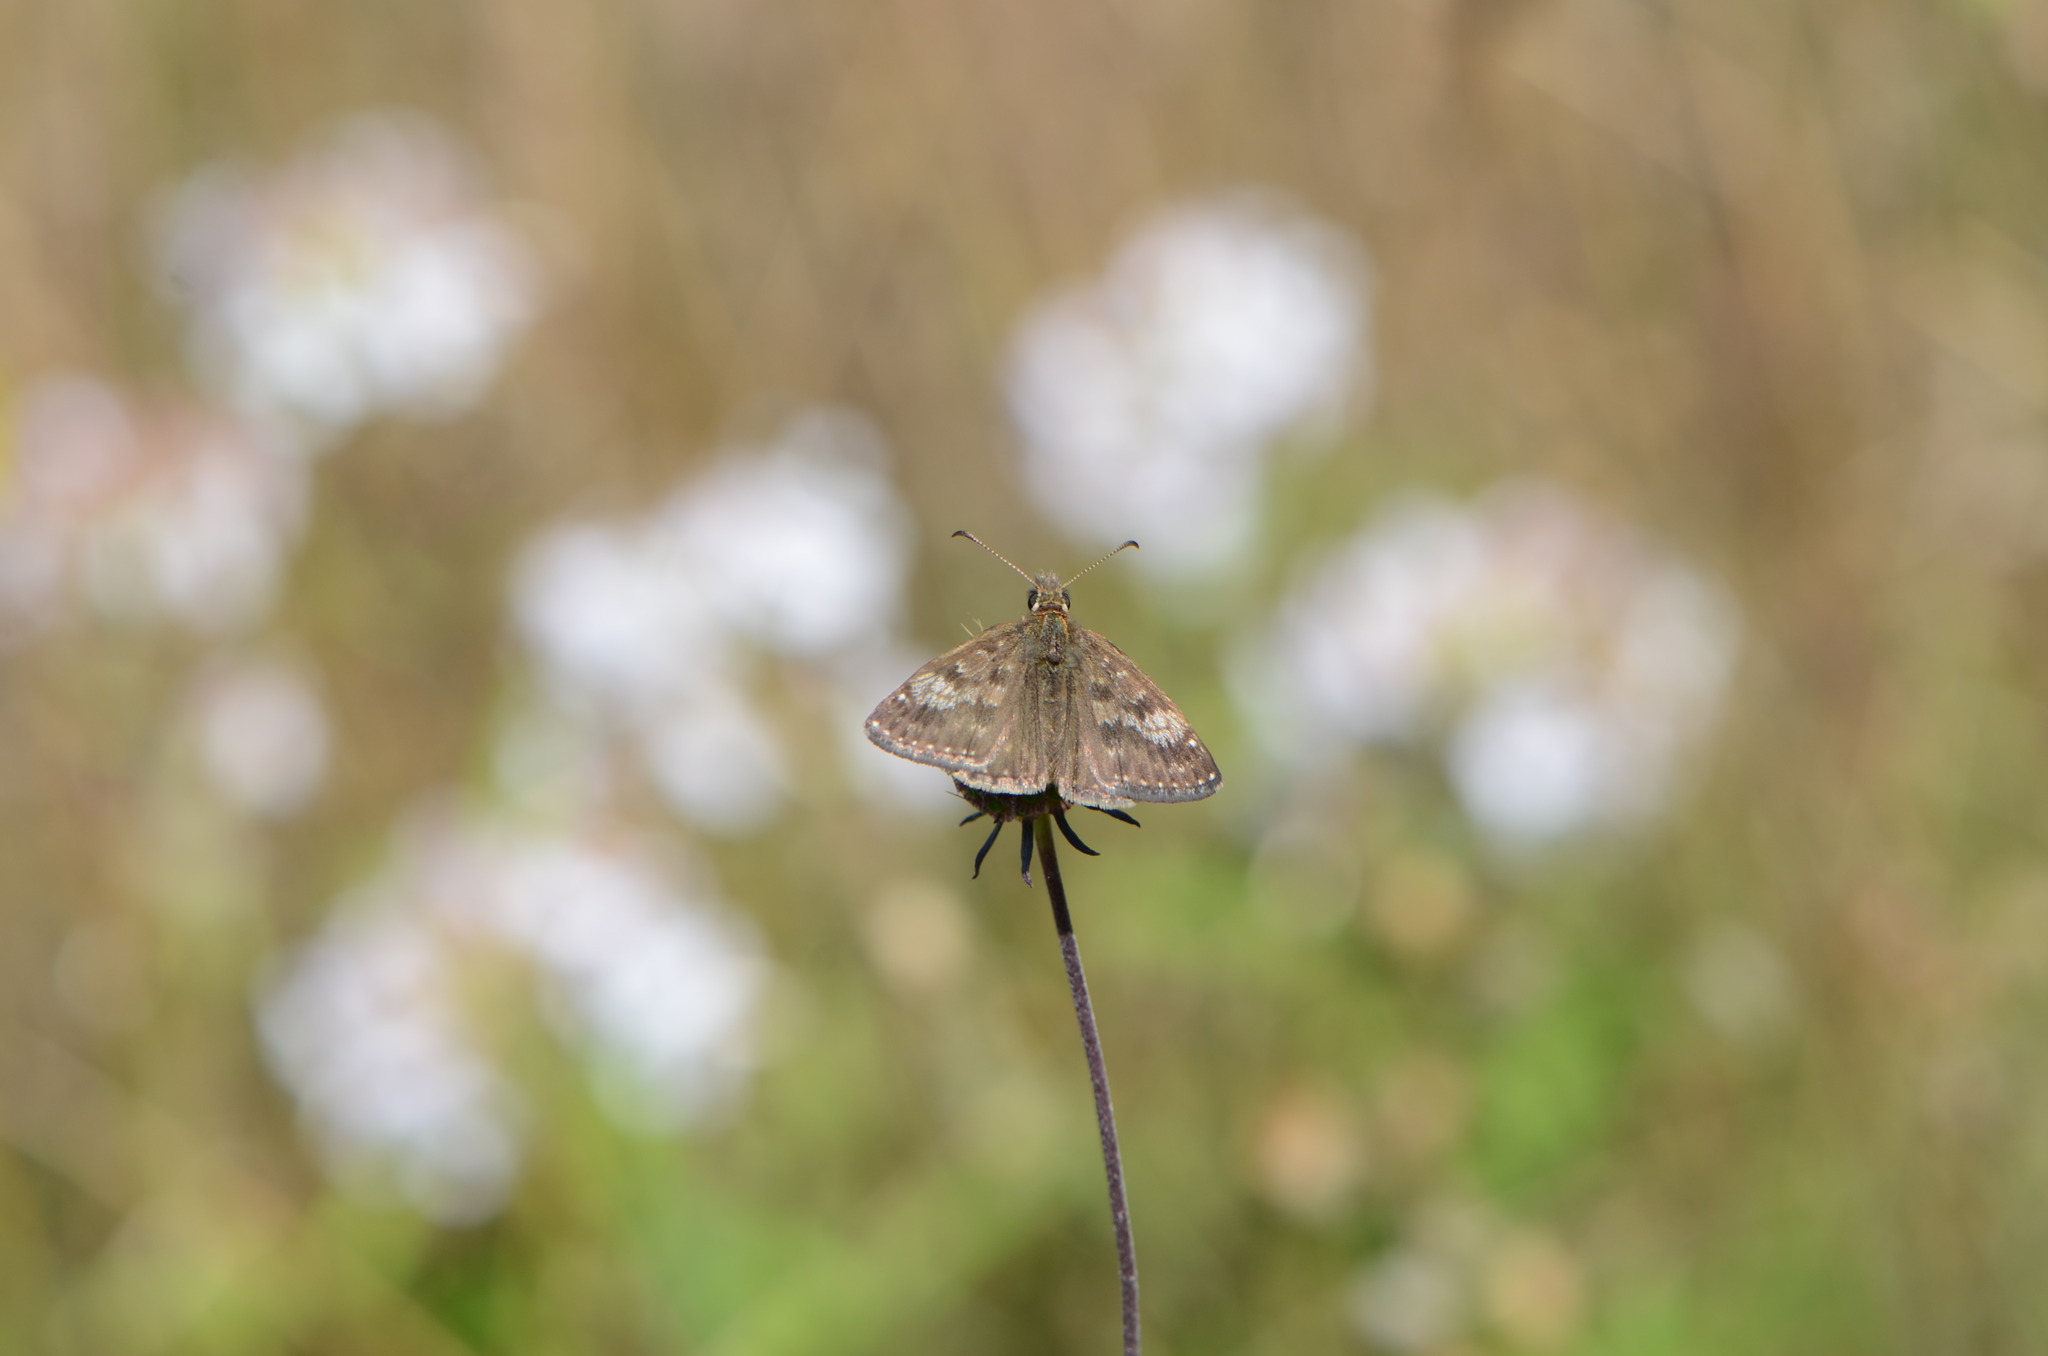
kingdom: Animalia
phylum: Arthropoda
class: Insecta
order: Lepidoptera
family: Hesperiidae
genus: Erynnis
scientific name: Erynnis tages
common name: Dingy skipper
